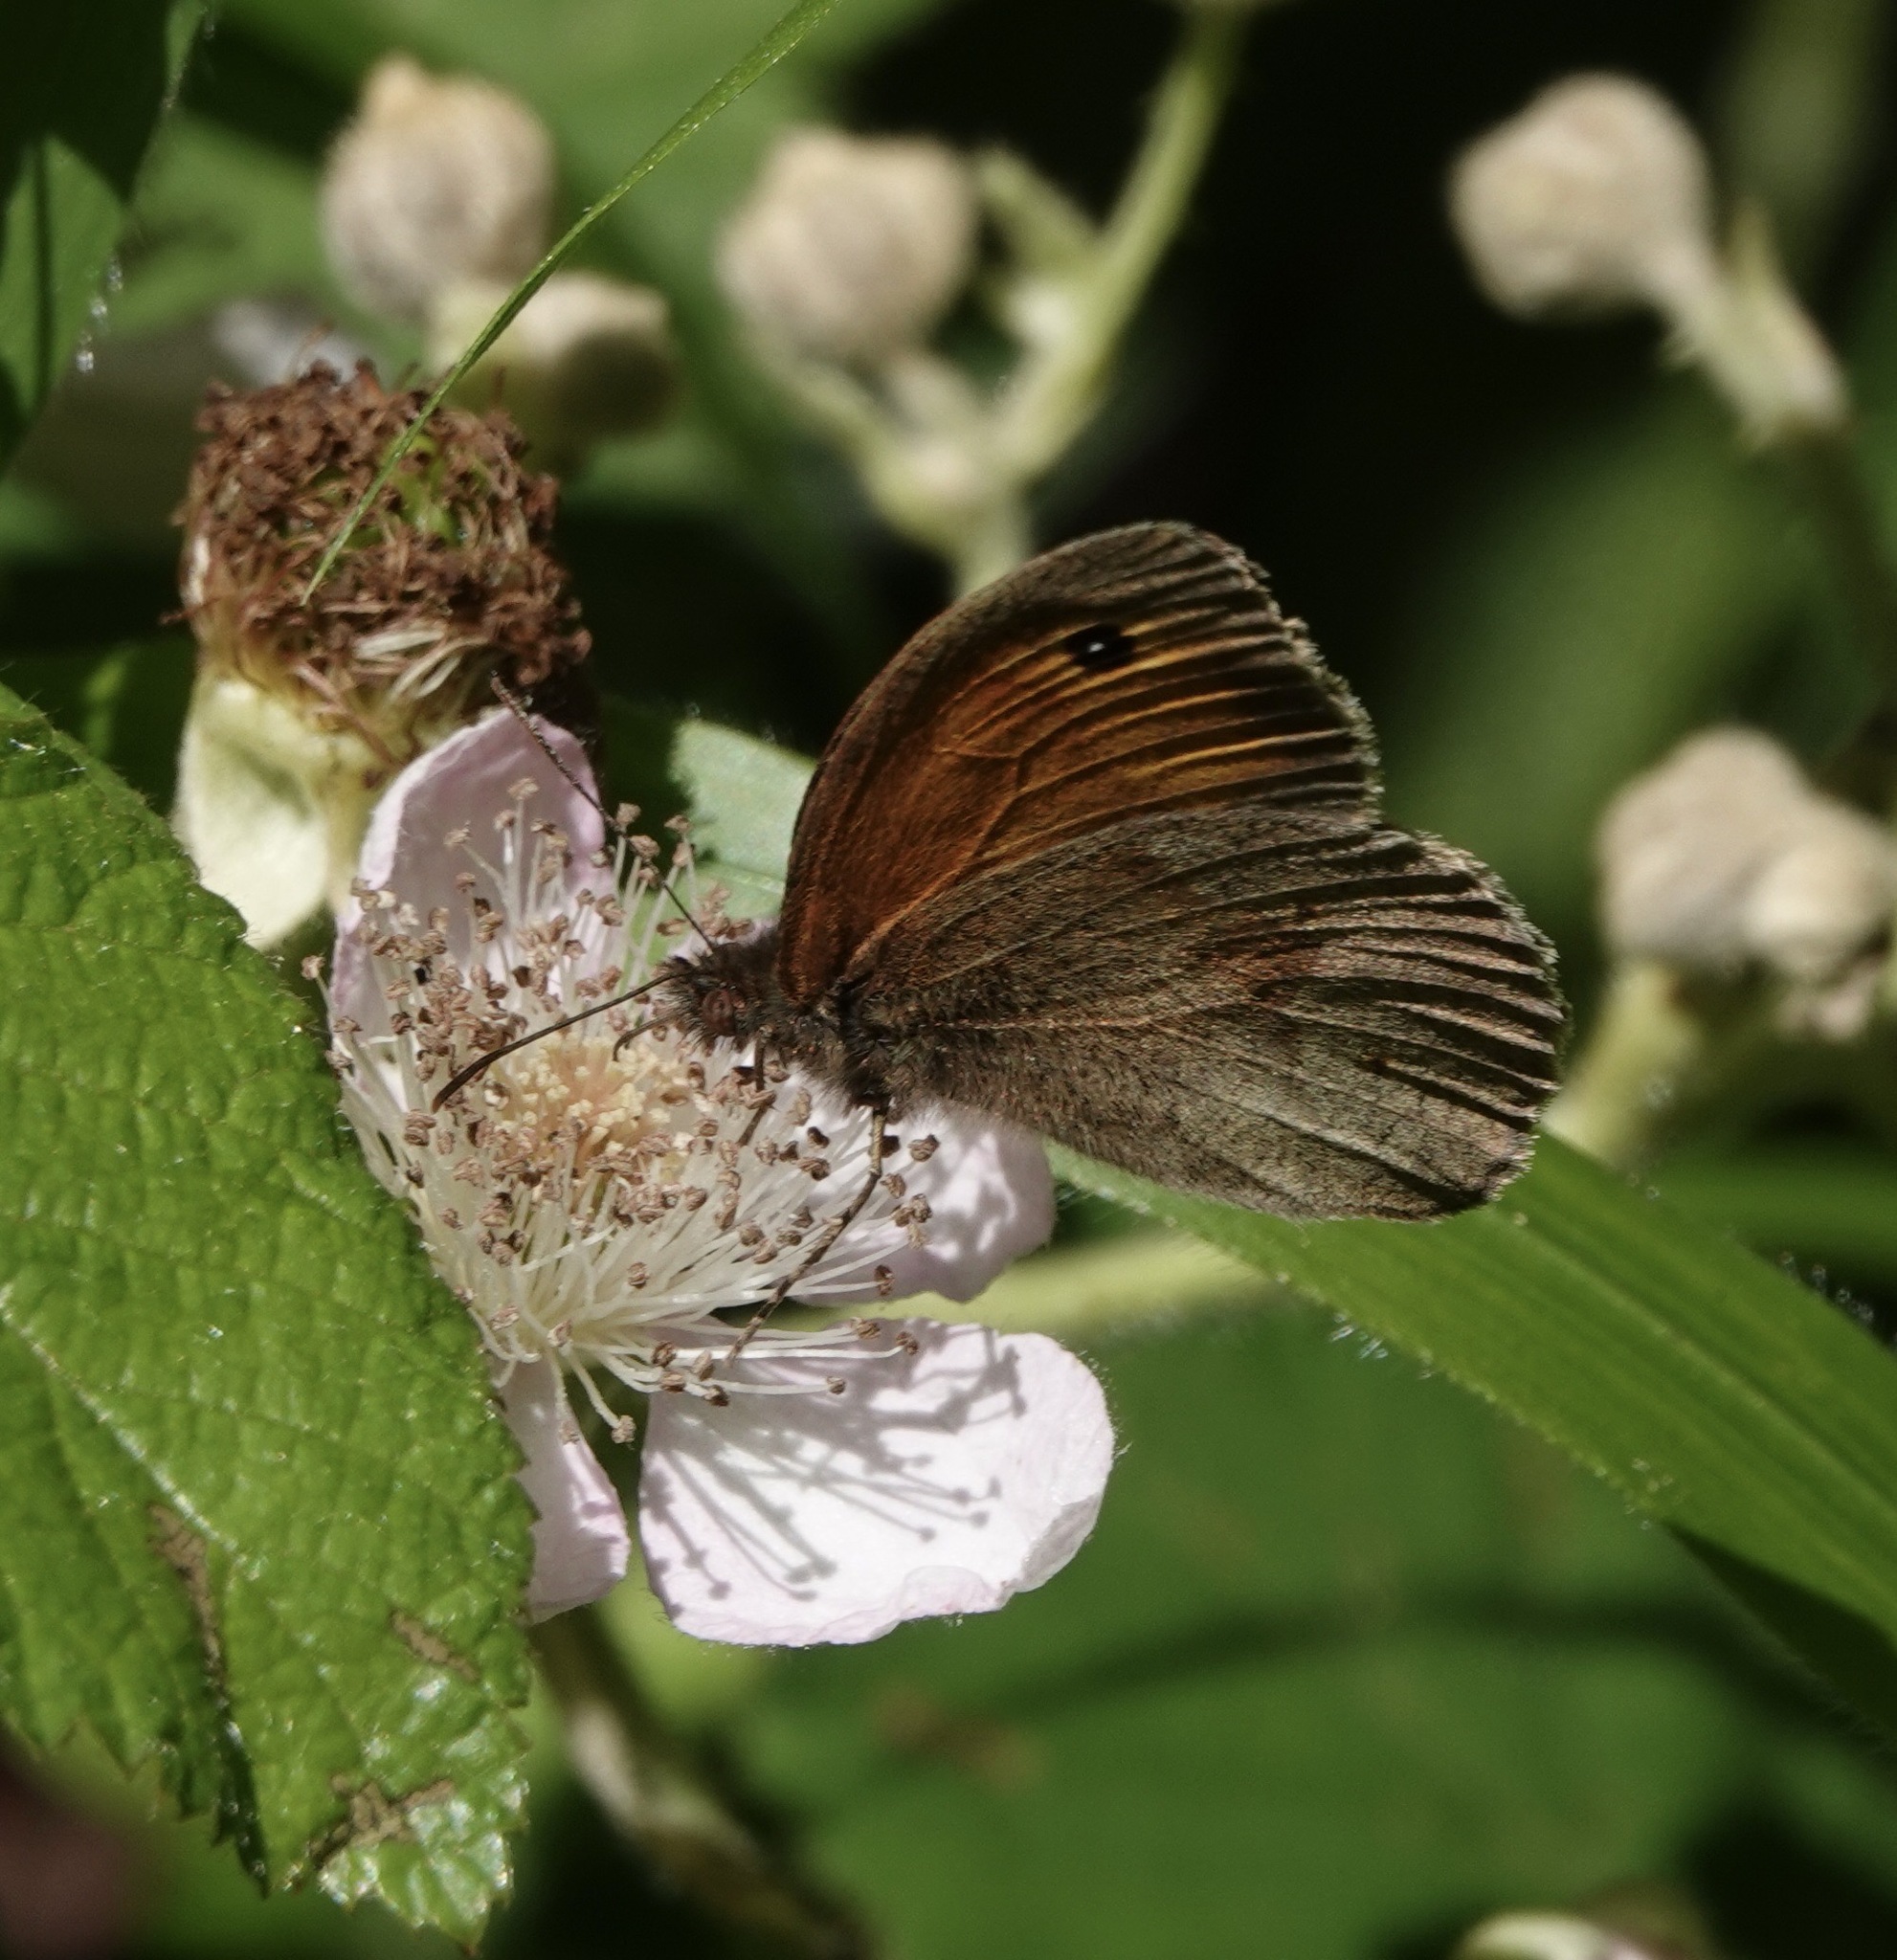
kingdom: Animalia
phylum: Arthropoda
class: Insecta
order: Lepidoptera
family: Nymphalidae
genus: Maniola
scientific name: Maniola jurtina
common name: Meadow brown
